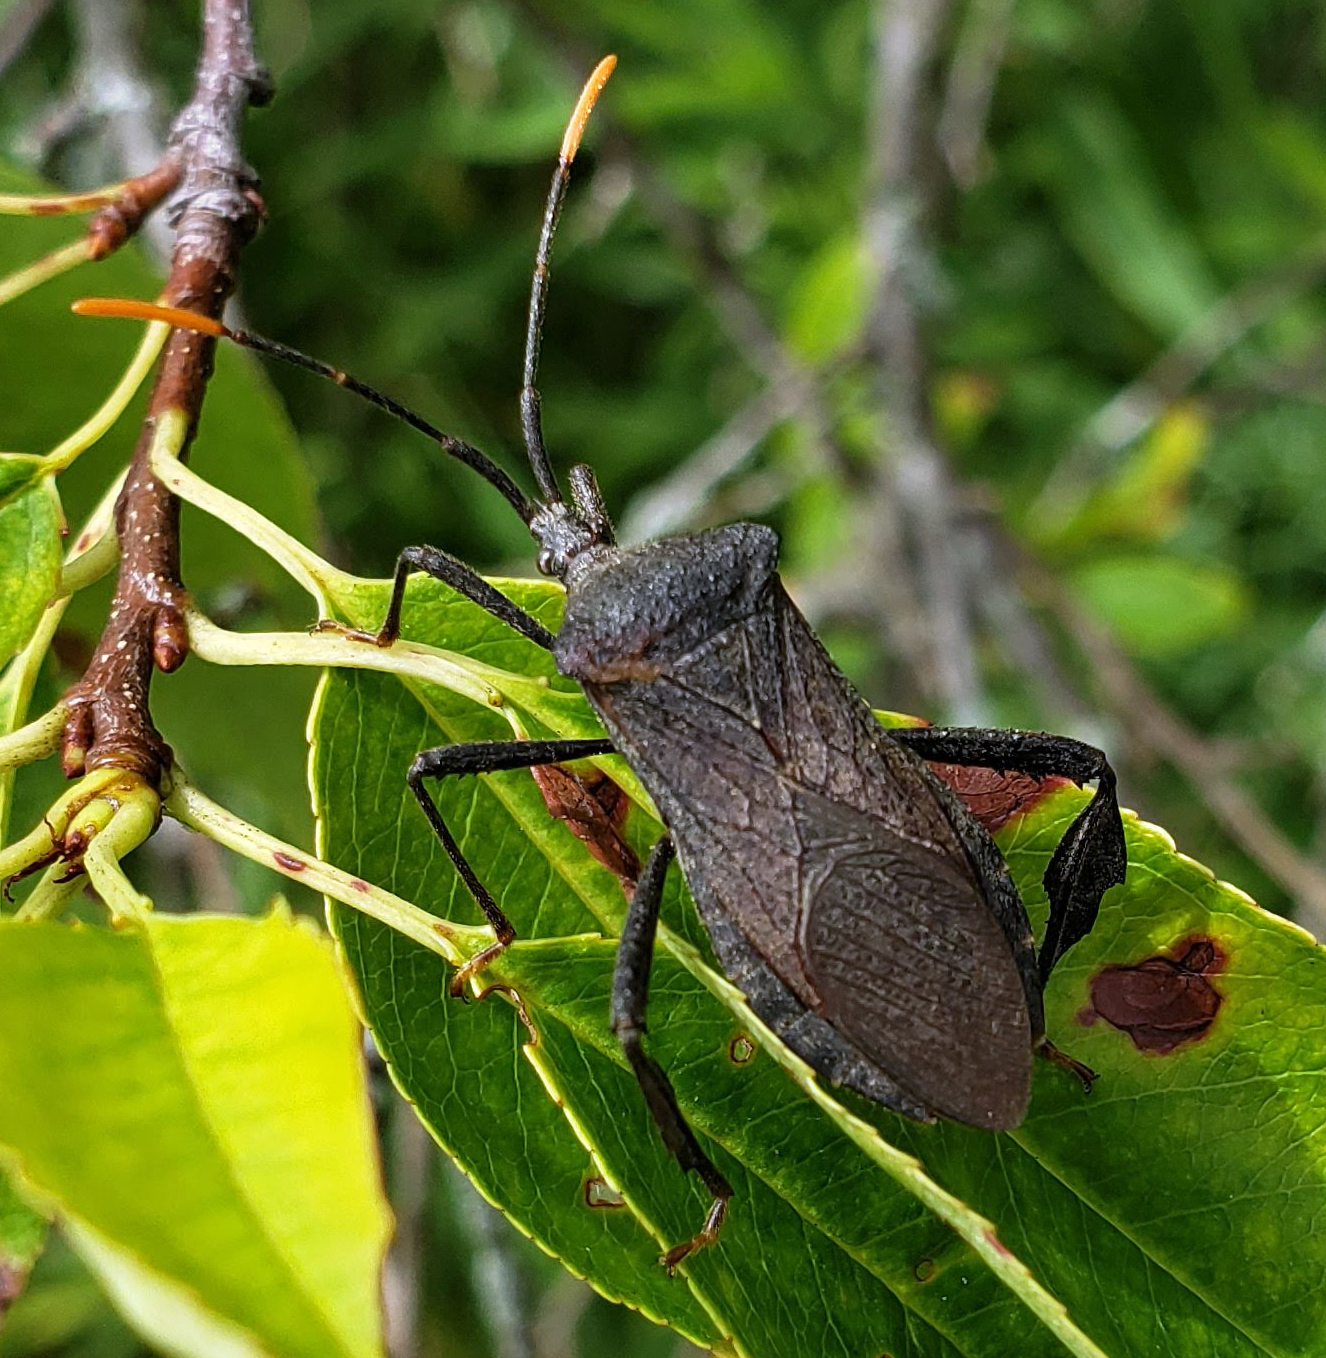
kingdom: Animalia
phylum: Arthropoda
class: Insecta
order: Hemiptera
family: Coreidae
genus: Acanthocephala
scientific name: Acanthocephala terminalis
